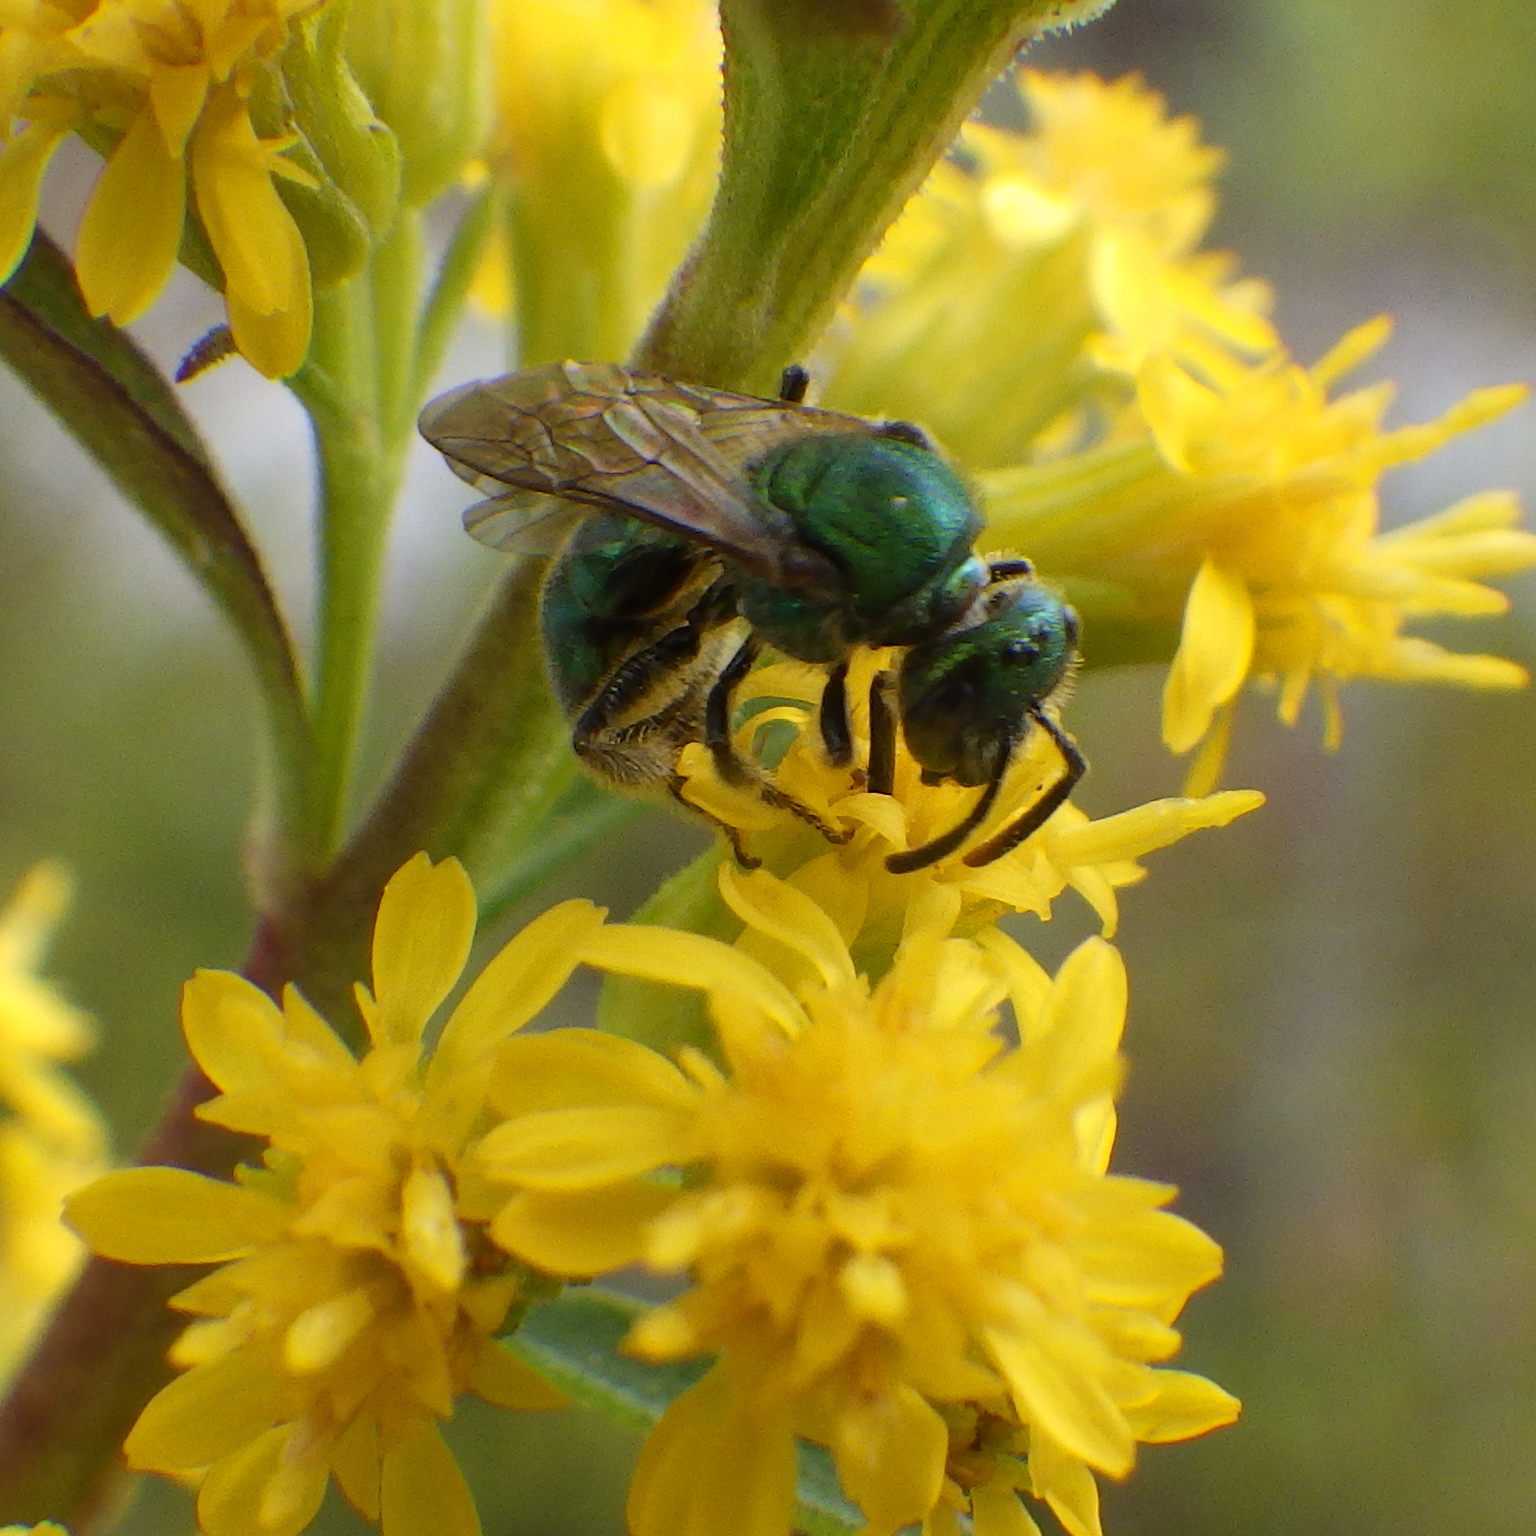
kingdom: Animalia
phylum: Arthropoda
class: Insecta
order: Hymenoptera
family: Halictidae
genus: Augochlorella
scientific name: Augochlorella aurata
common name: Golden sweat bee
